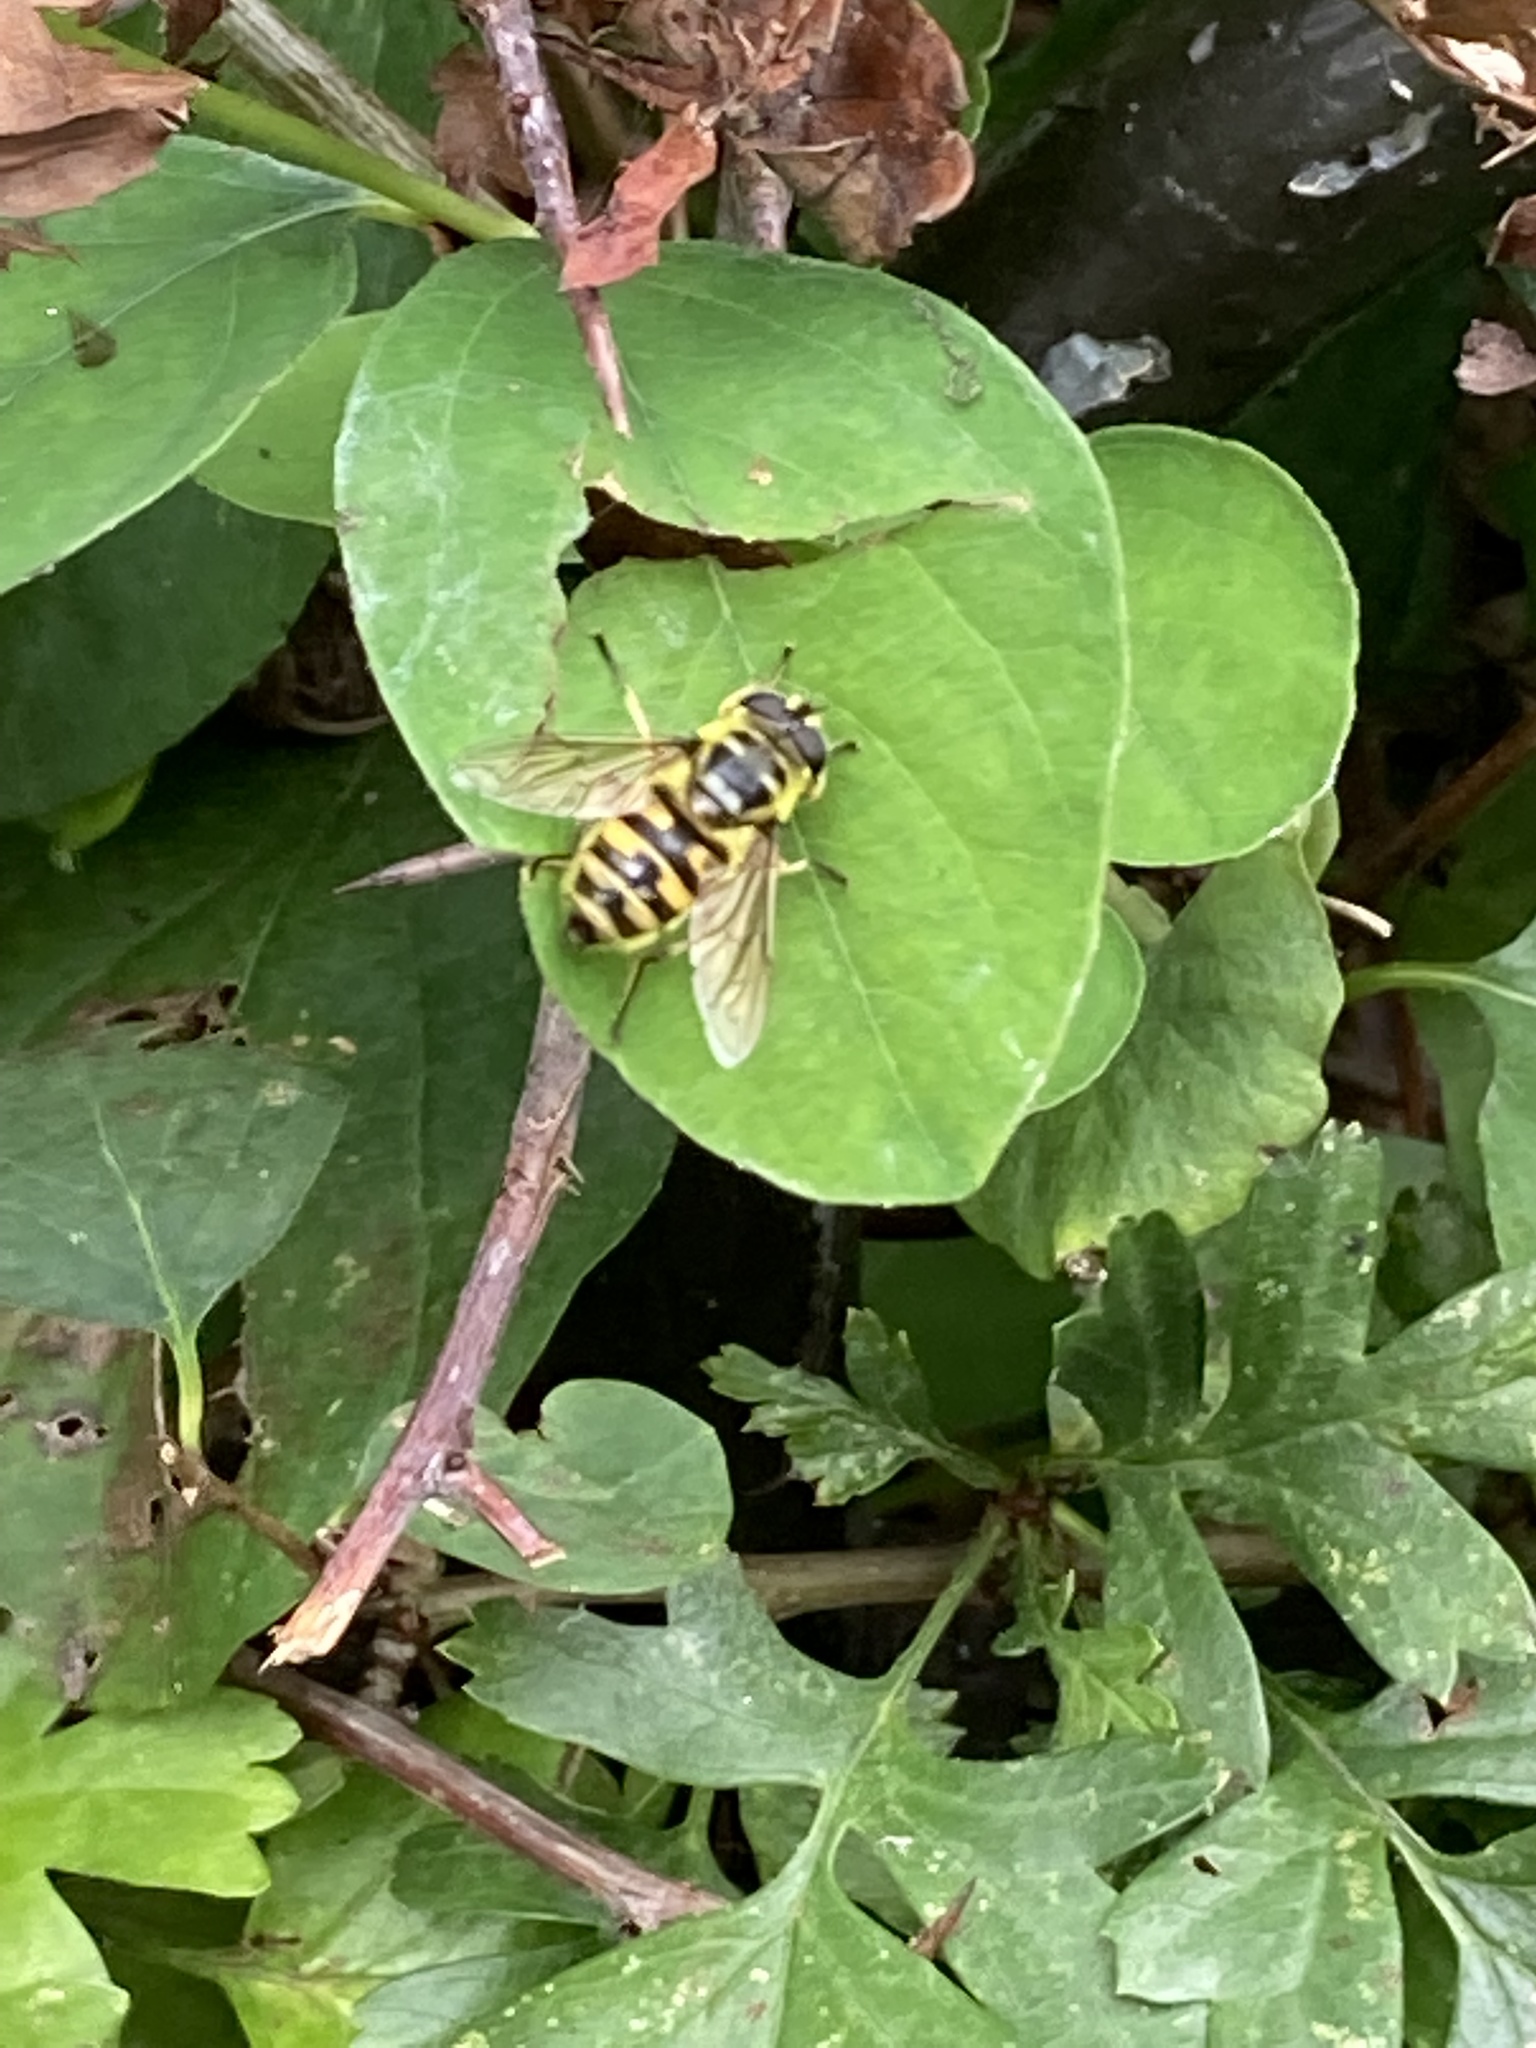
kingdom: Animalia
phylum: Arthropoda
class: Insecta
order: Diptera
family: Syrphidae
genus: Myathropa
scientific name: Myathropa florea
